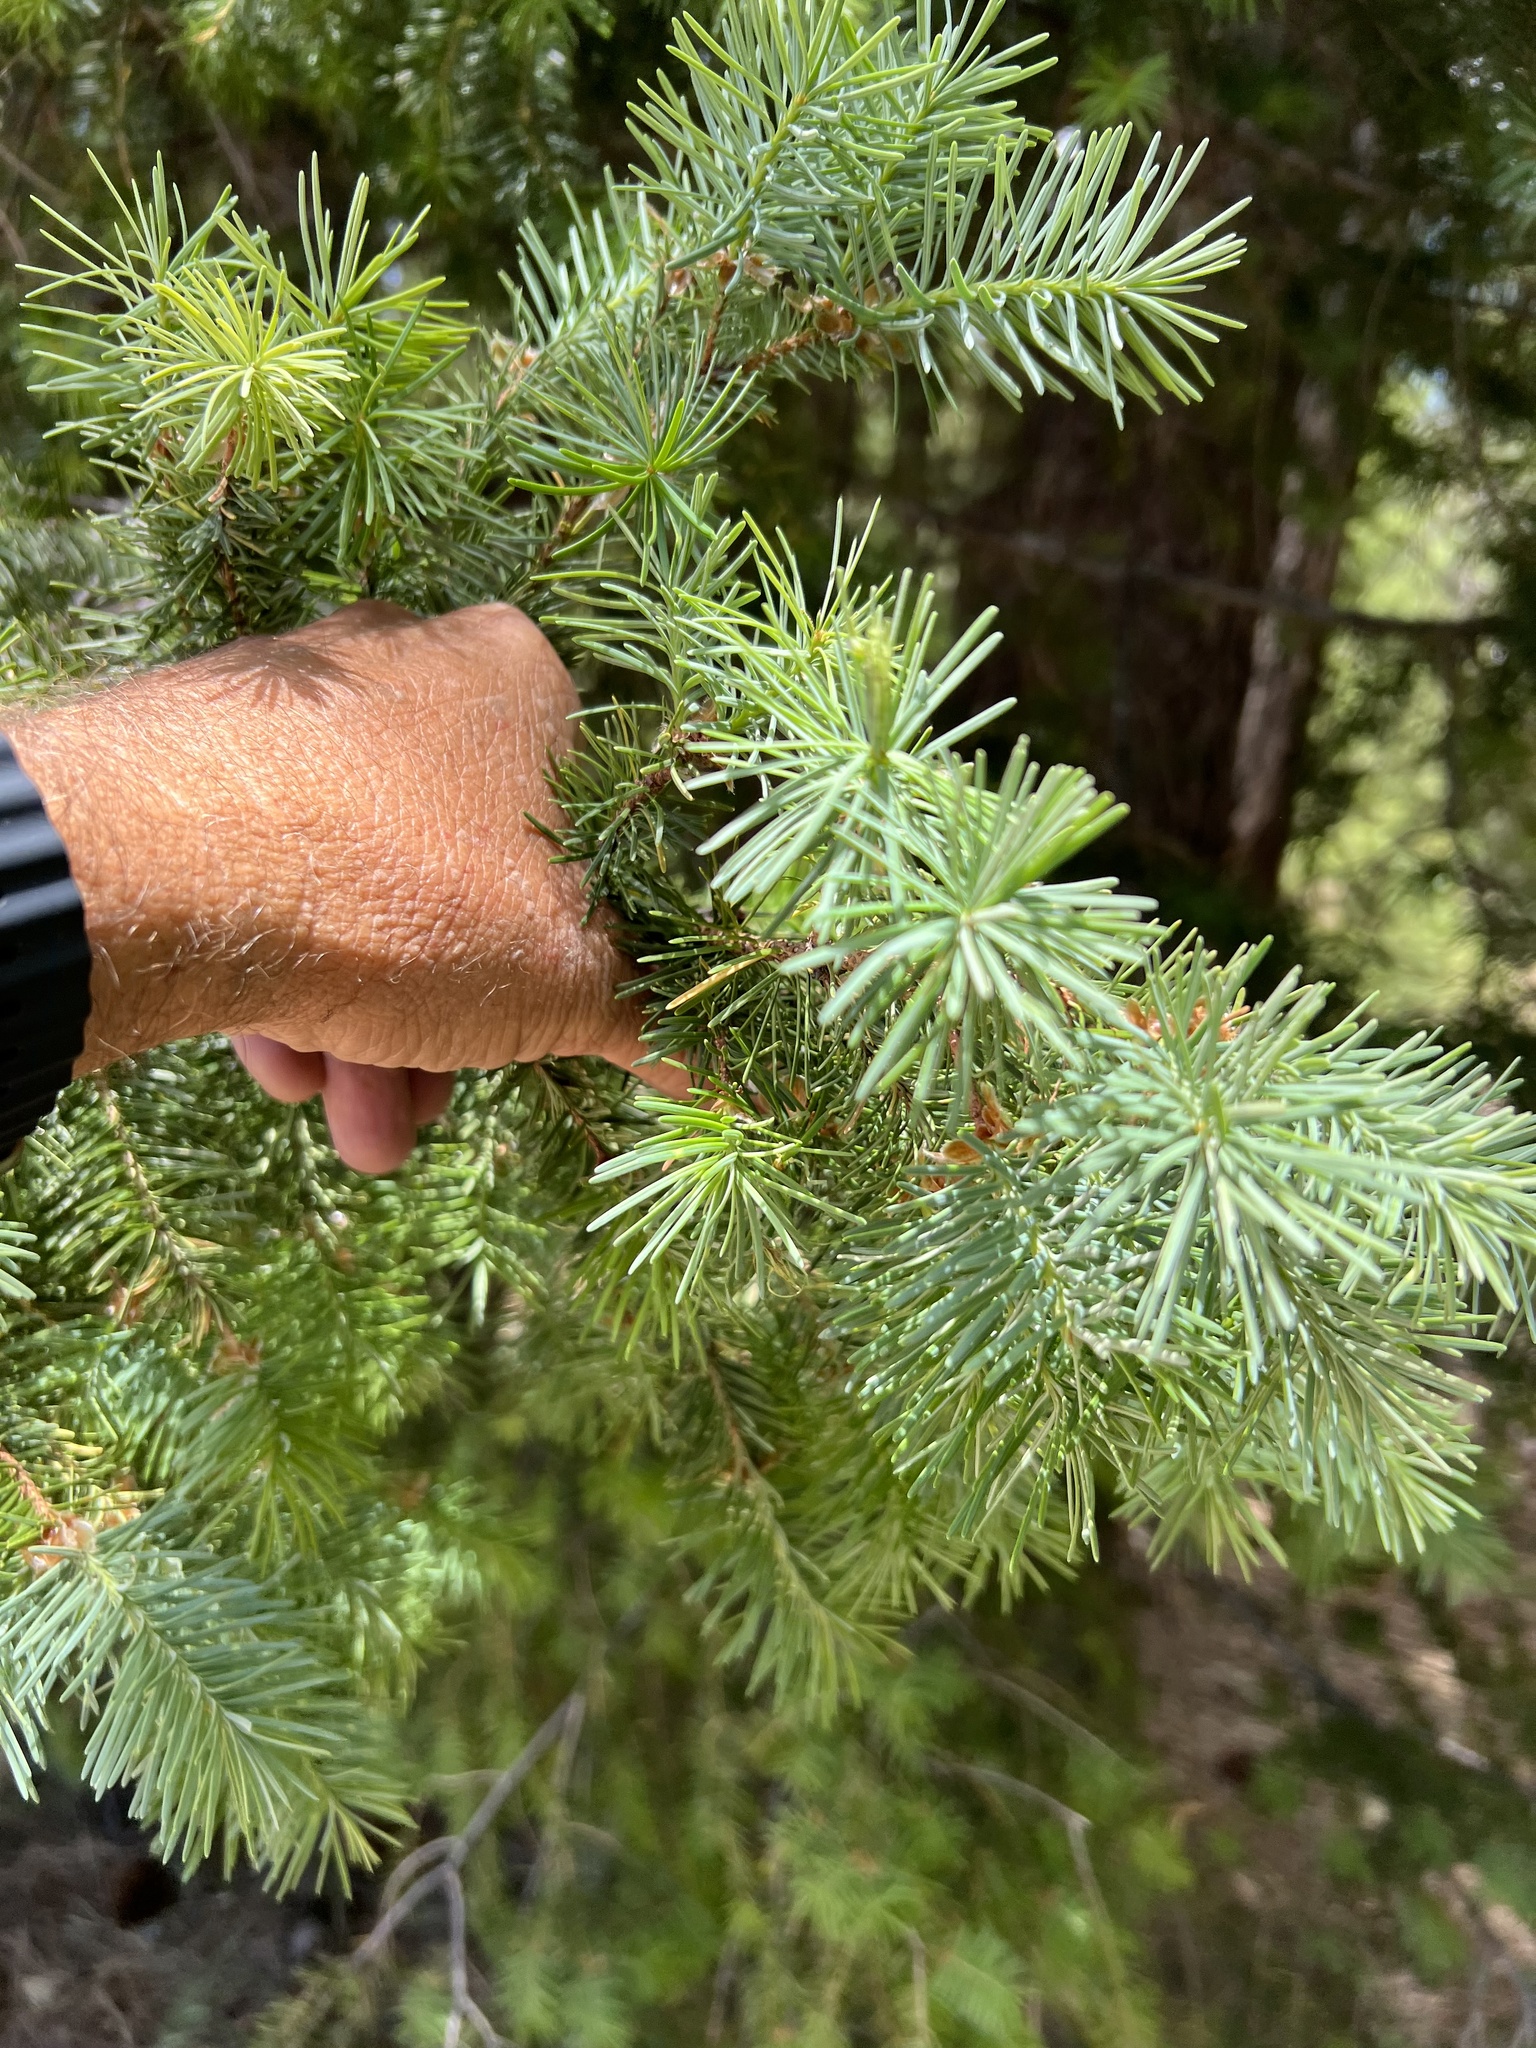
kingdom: Plantae
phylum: Tracheophyta
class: Pinopsida
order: Pinales
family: Pinaceae
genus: Pseudotsuga
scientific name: Pseudotsuga menziesii
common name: Douglas fir
